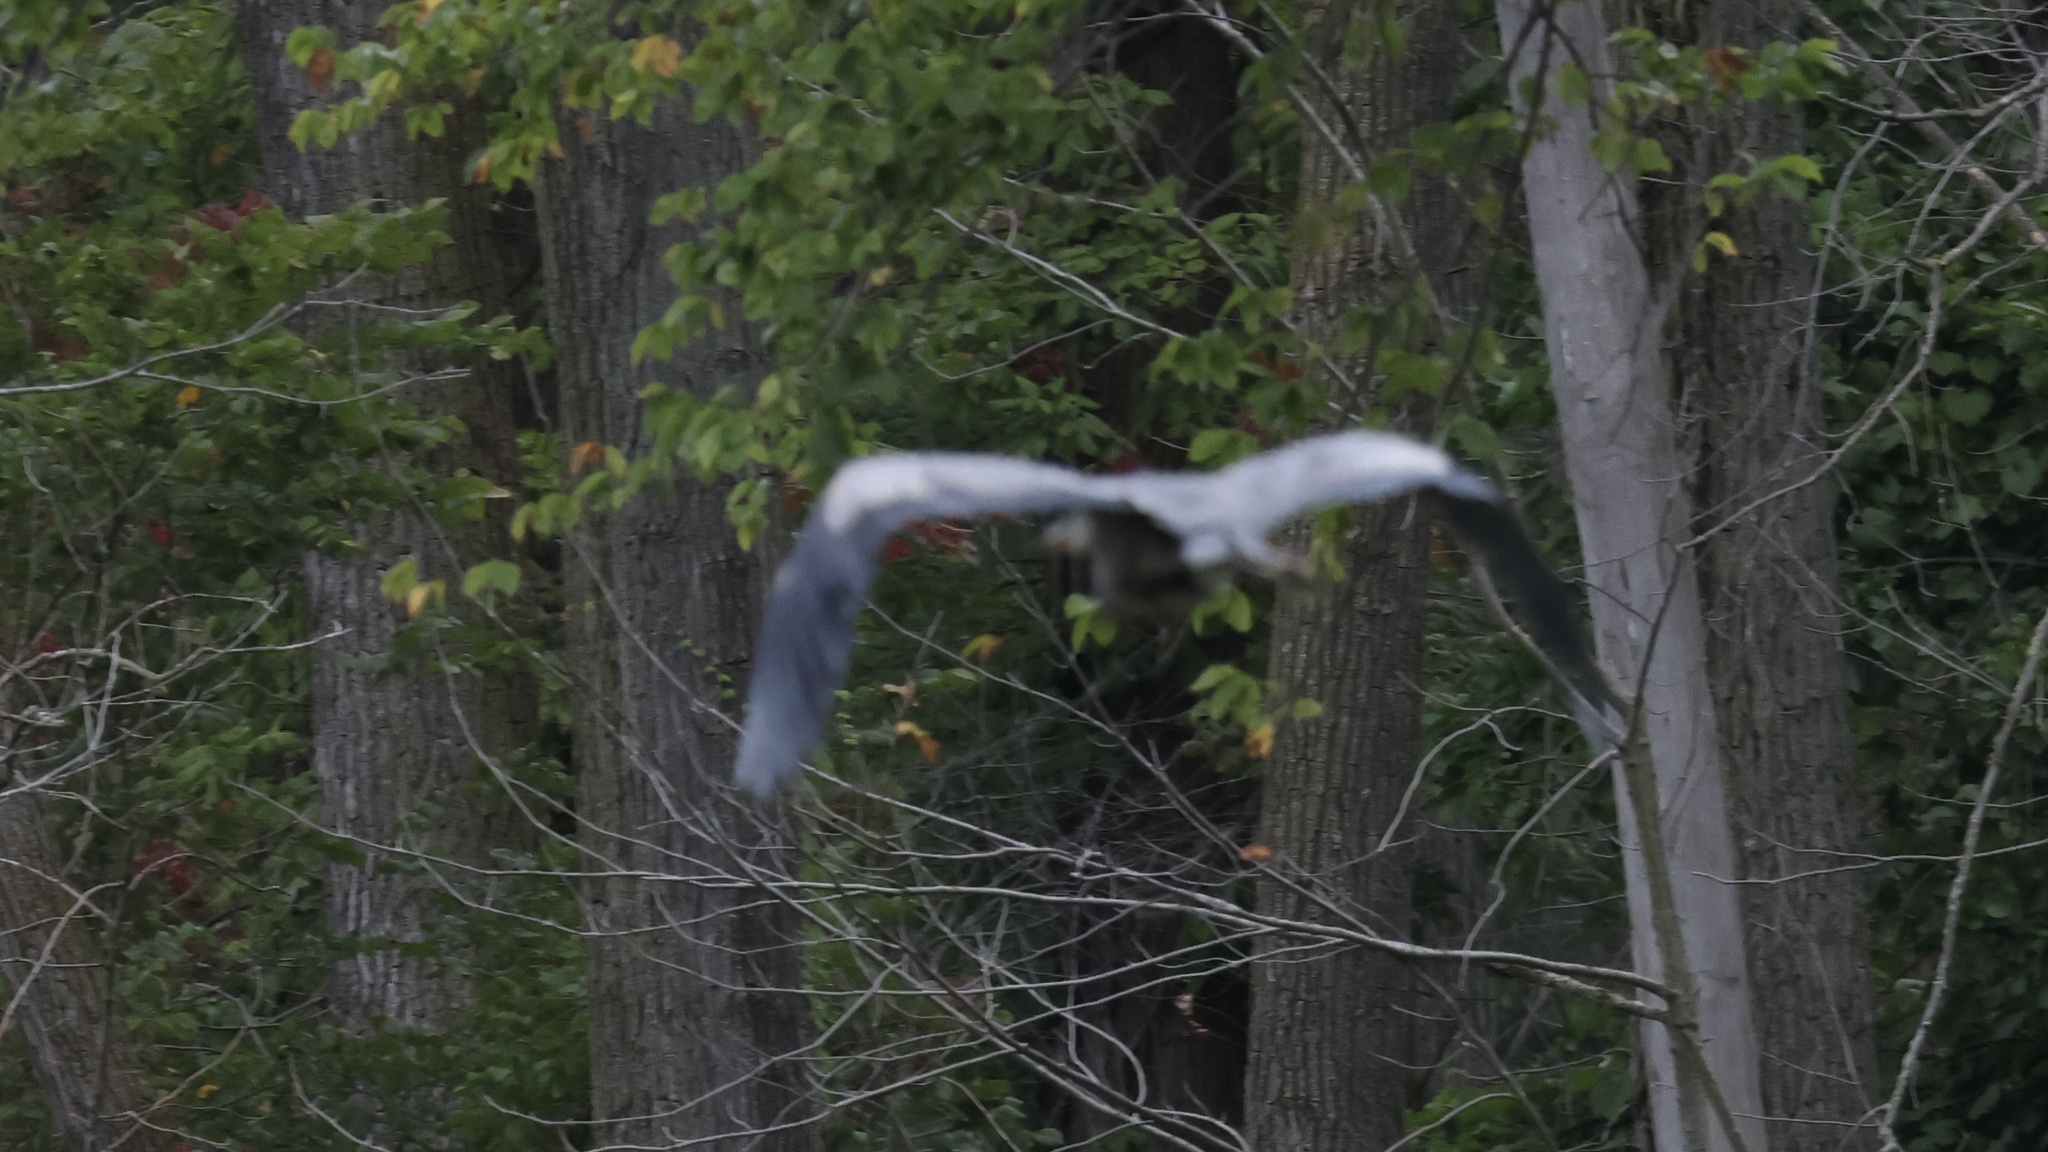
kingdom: Animalia
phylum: Chordata
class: Aves
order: Pelecaniformes
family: Ardeidae
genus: Ardea
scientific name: Ardea herodias
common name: Great blue heron
